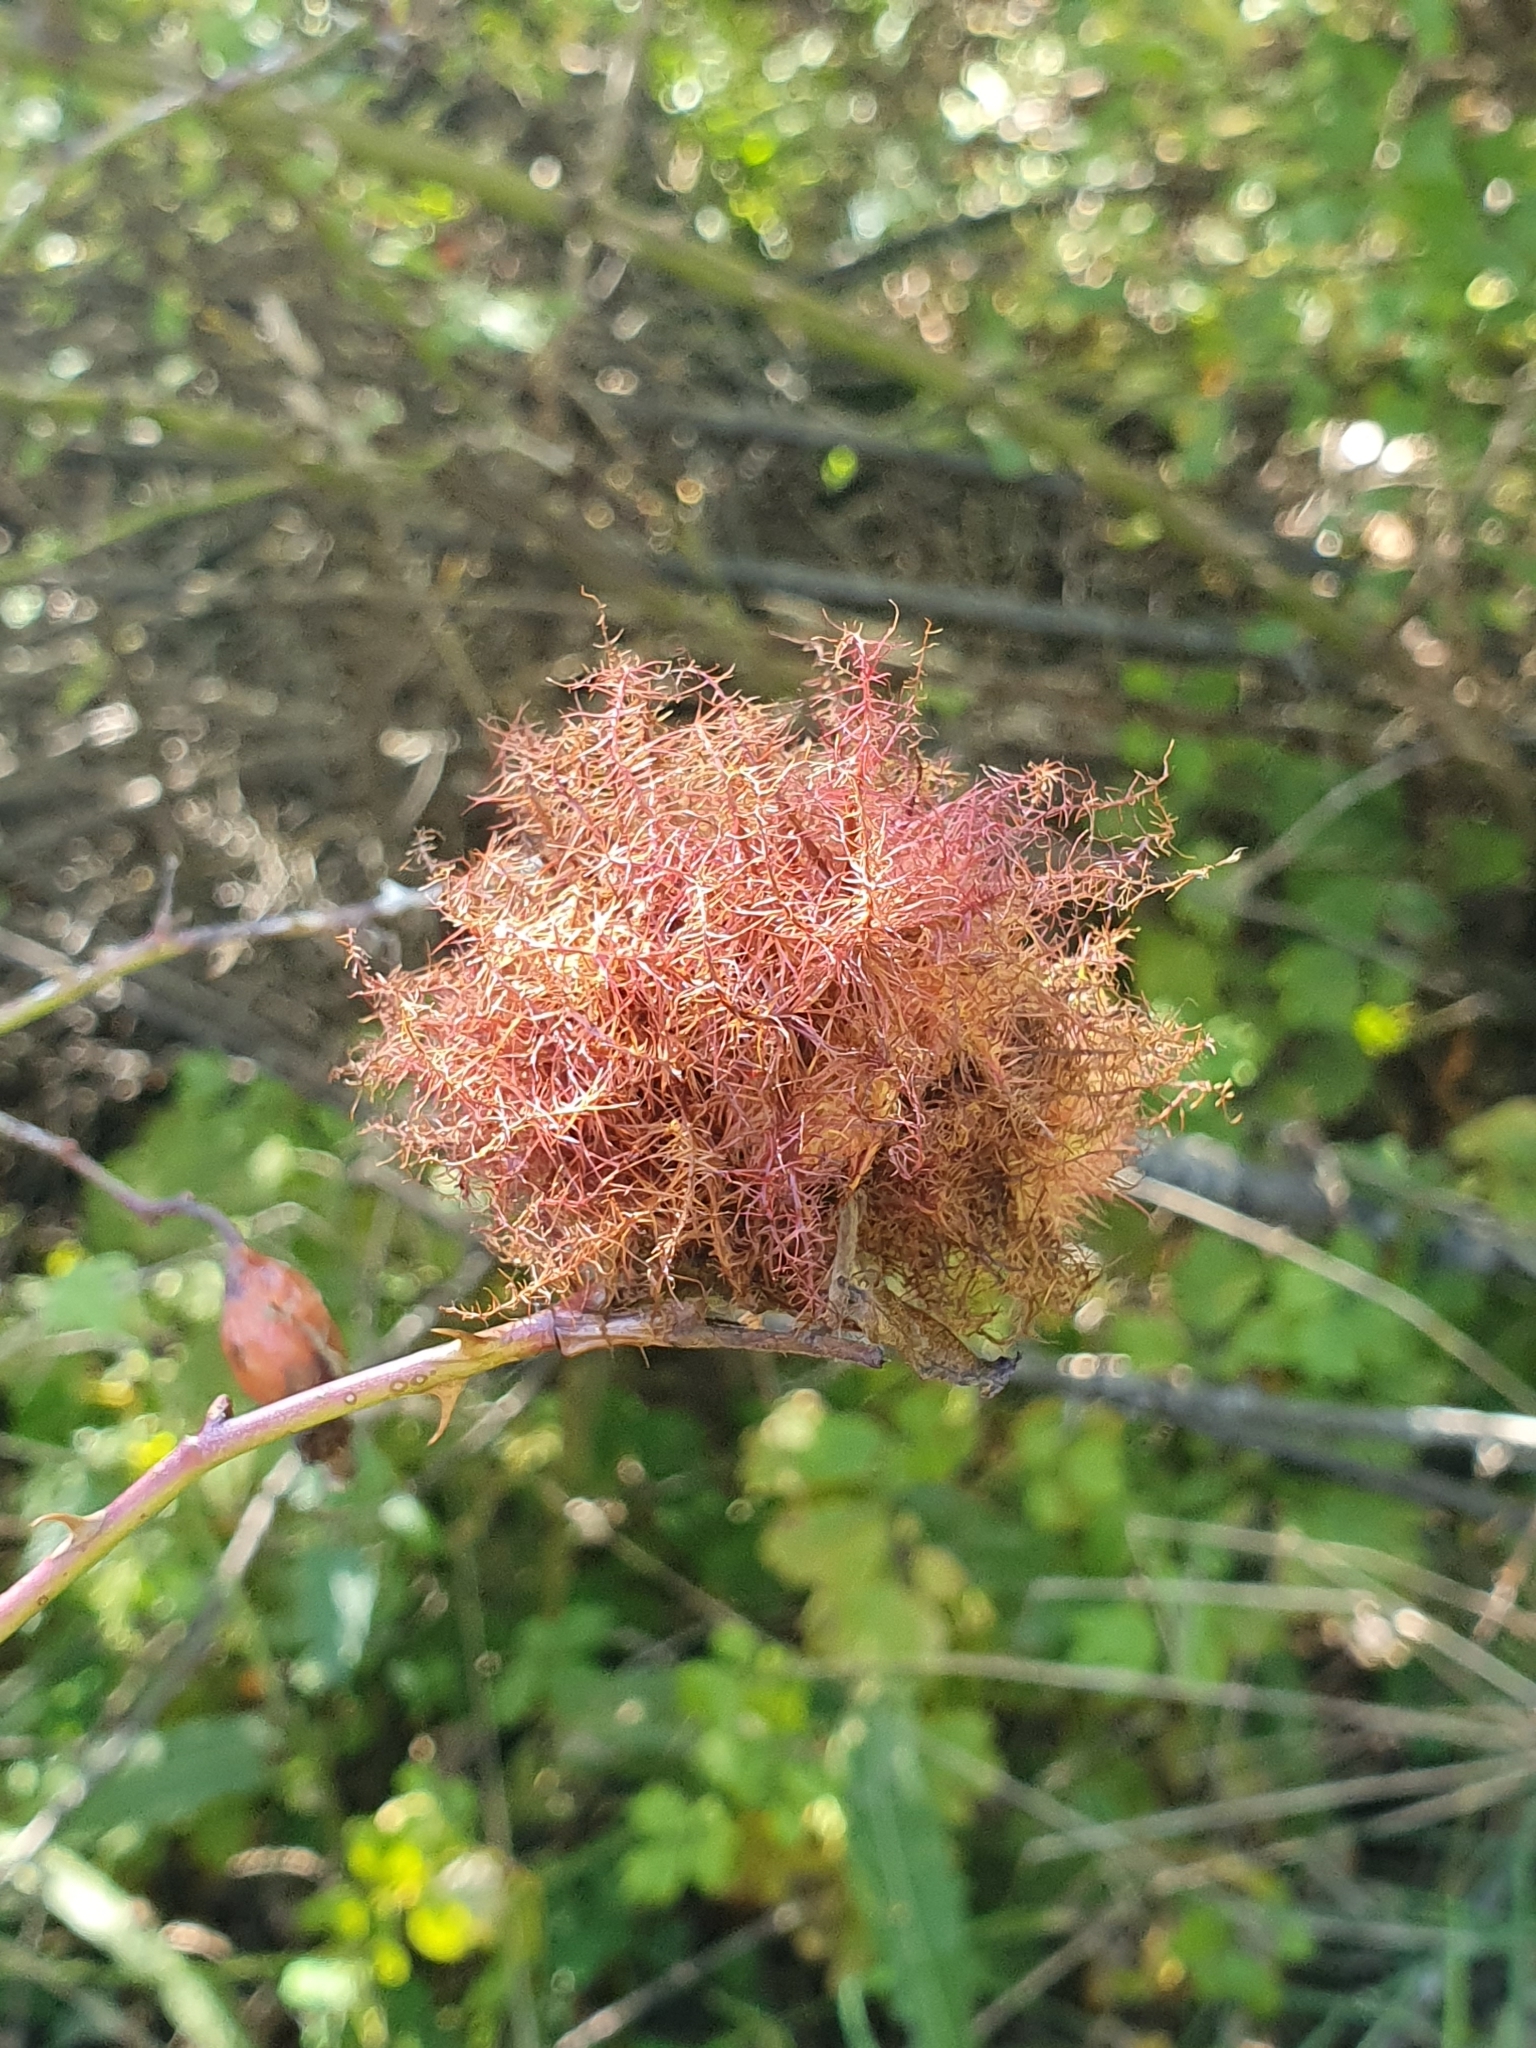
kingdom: Animalia
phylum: Arthropoda
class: Insecta
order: Hymenoptera
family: Cynipidae
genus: Diplolepis
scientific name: Diplolepis rosae
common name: Bedeguar gall
